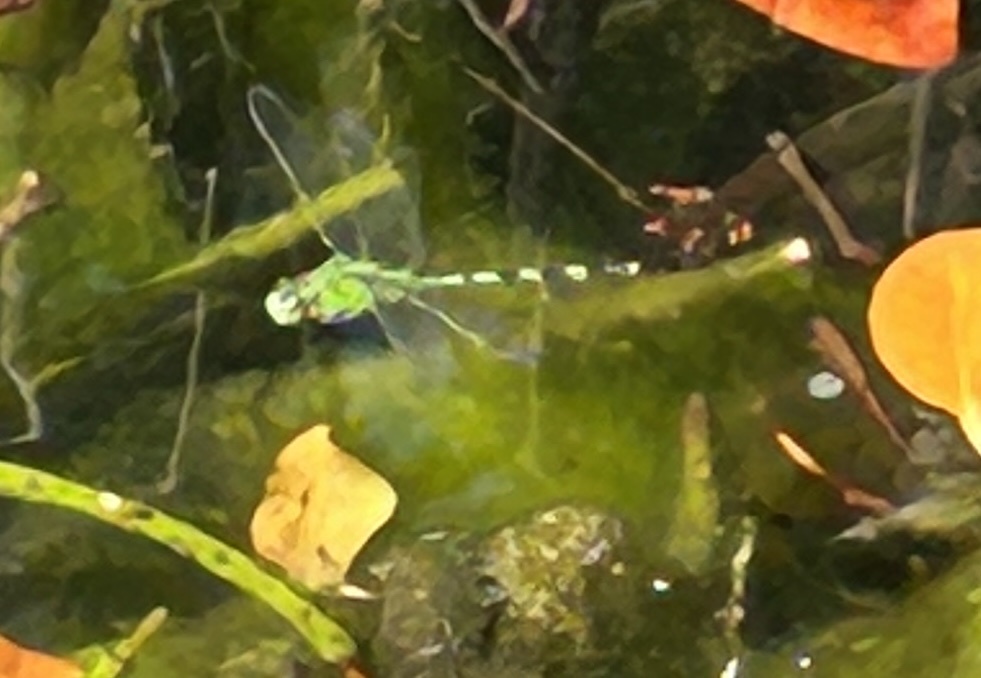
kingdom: Animalia
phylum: Arthropoda
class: Insecta
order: Odonata
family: Libellulidae
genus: Erythemis
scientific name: Erythemis vesiculosa
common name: Great pondhawk
